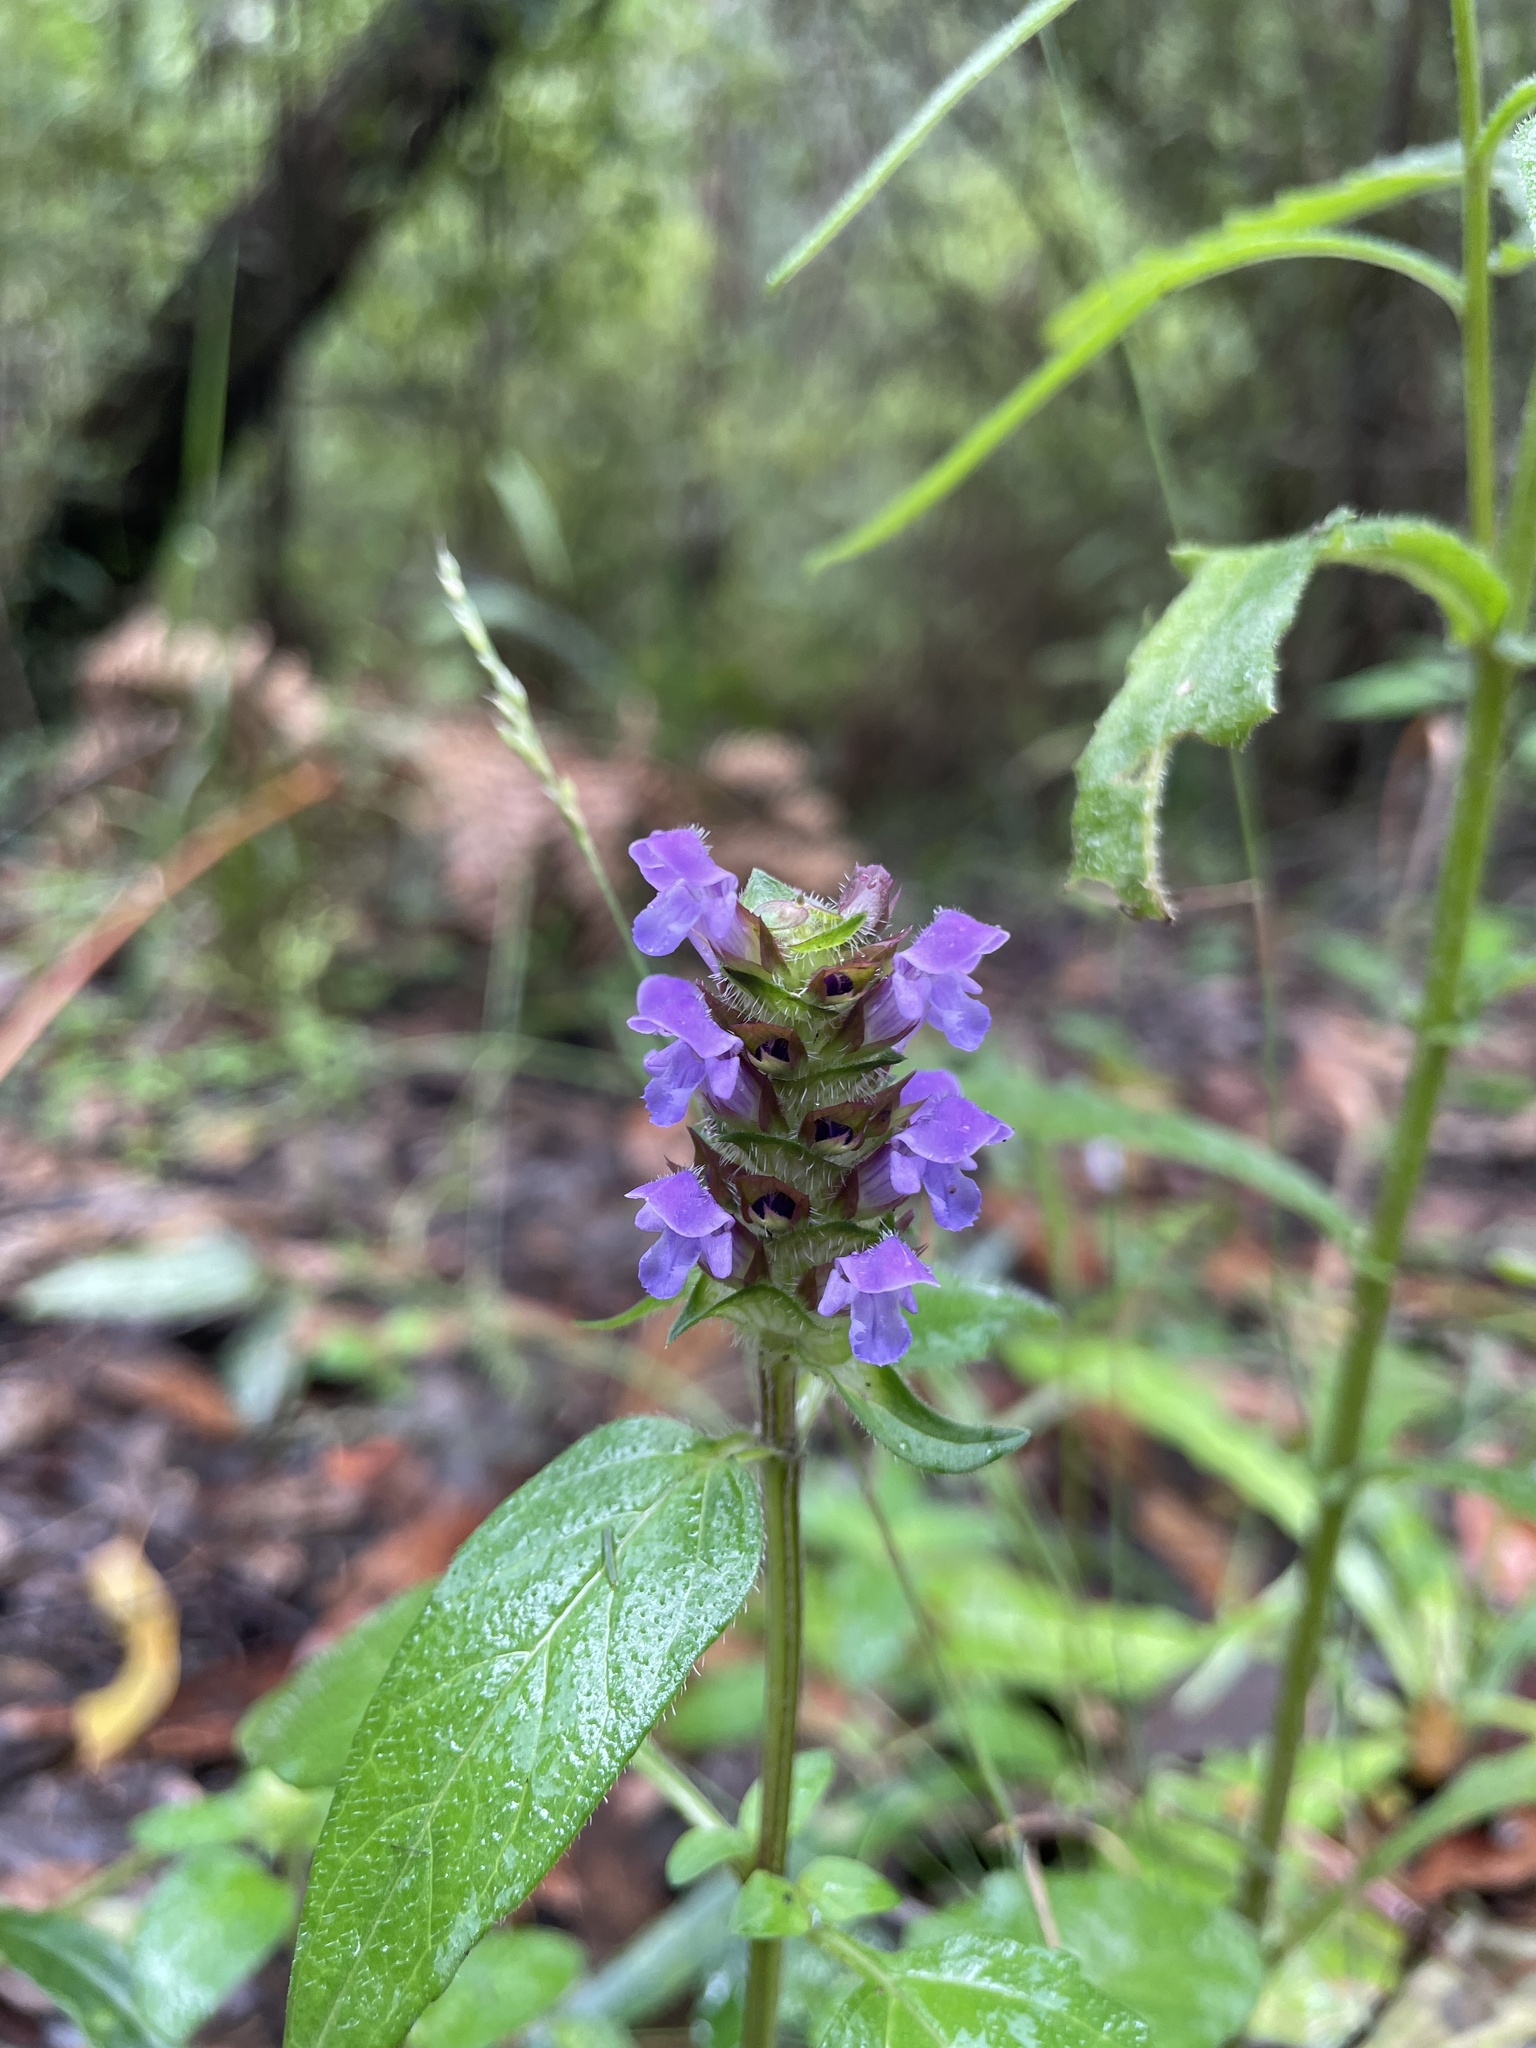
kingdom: Plantae
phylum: Tracheophyta
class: Magnoliopsida
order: Lamiales
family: Lamiaceae
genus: Prunella
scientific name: Prunella vulgaris
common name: Heal-all
